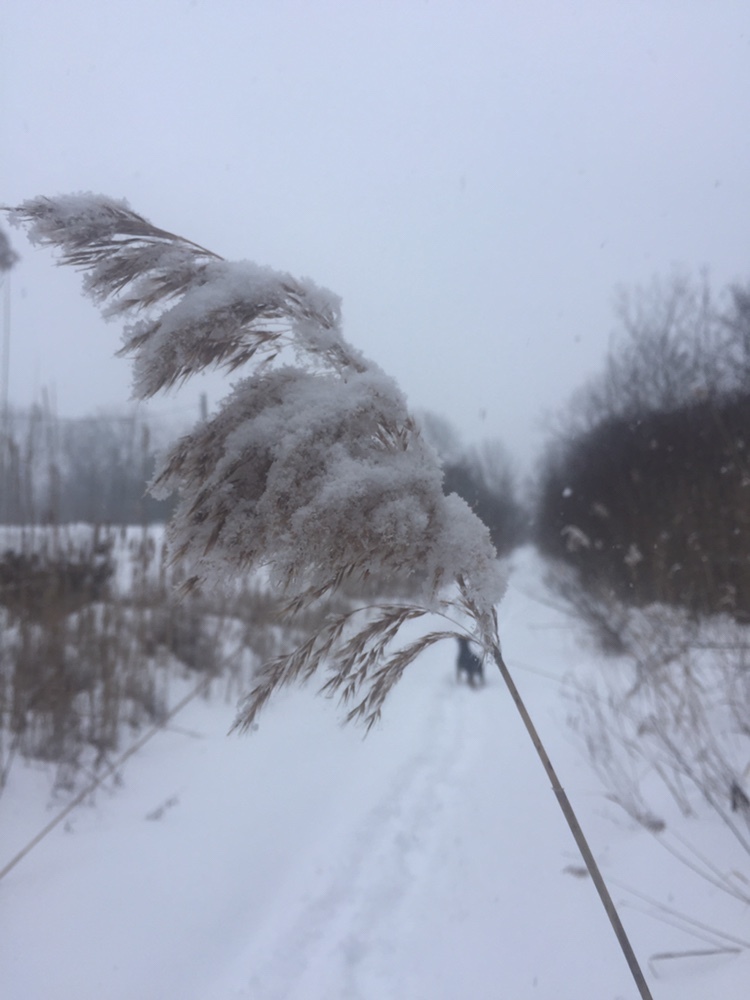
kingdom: Plantae
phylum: Tracheophyta
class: Liliopsida
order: Poales
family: Poaceae
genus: Phragmites
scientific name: Phragmites australis
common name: Common reed
